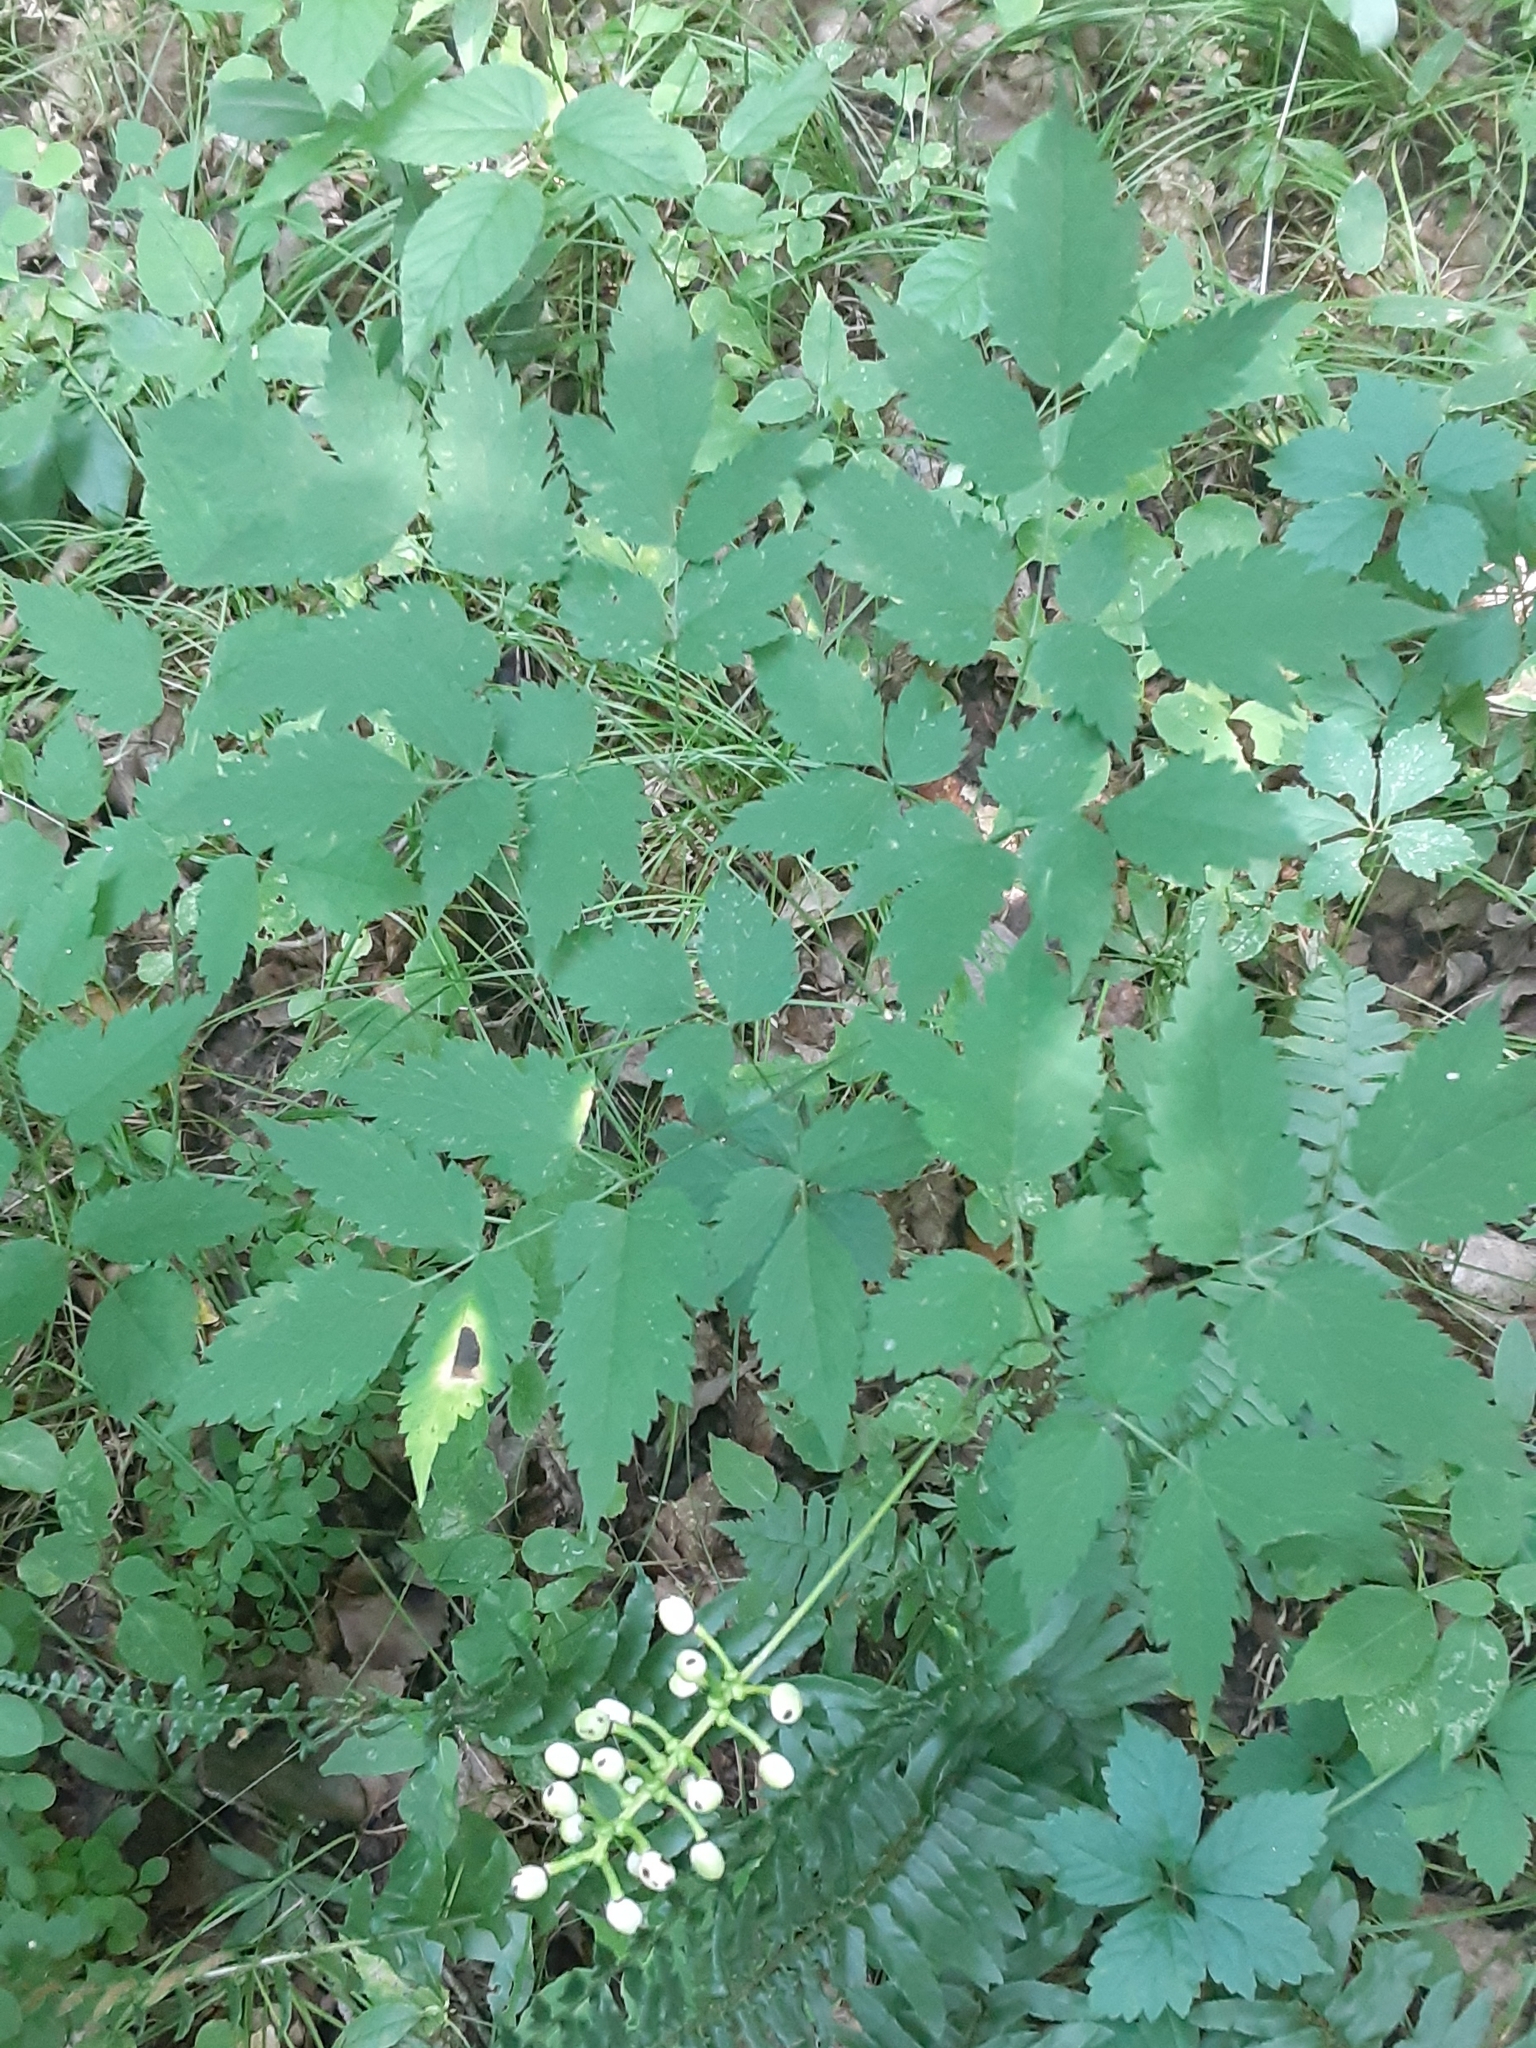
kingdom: Plantae
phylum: Tracheophyta
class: Magnoliopsida
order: Ranunculales
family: Ranunculaceae
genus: Actaea
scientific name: Actaea pachypoda
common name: Doll's-eyes
